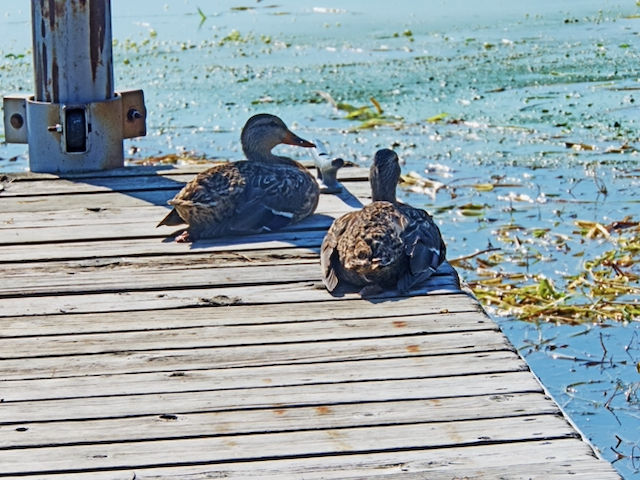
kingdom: Animalia
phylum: Chordata
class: Aves
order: Anseriformes
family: Anatidae
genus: Anas
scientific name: Anas platyrhynchos
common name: Mallard
